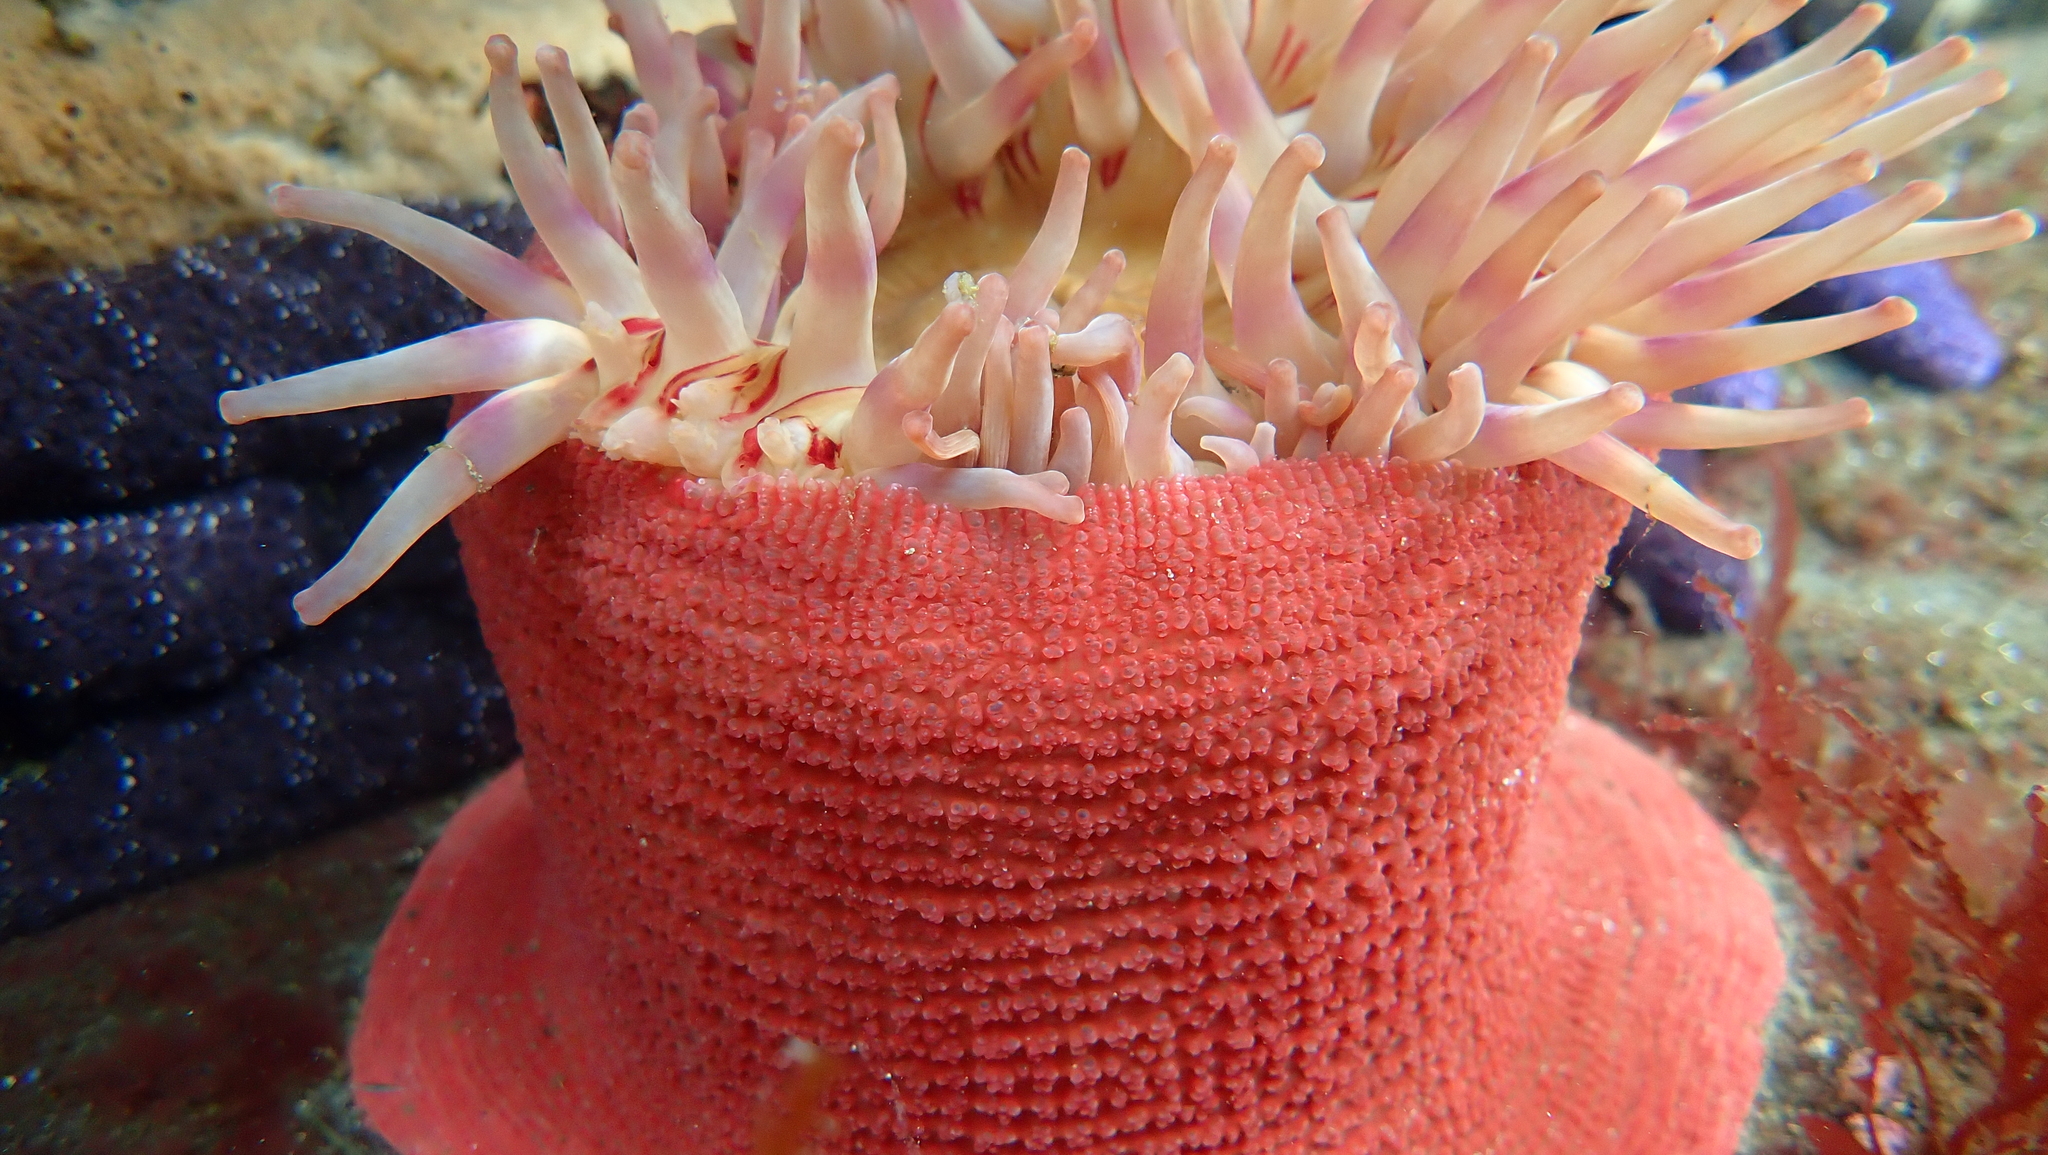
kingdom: Animalia
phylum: Cnidaria
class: Anthozoa
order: Actiniaria
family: Actiniidae
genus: Urticina
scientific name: Urticina grebelnyi
